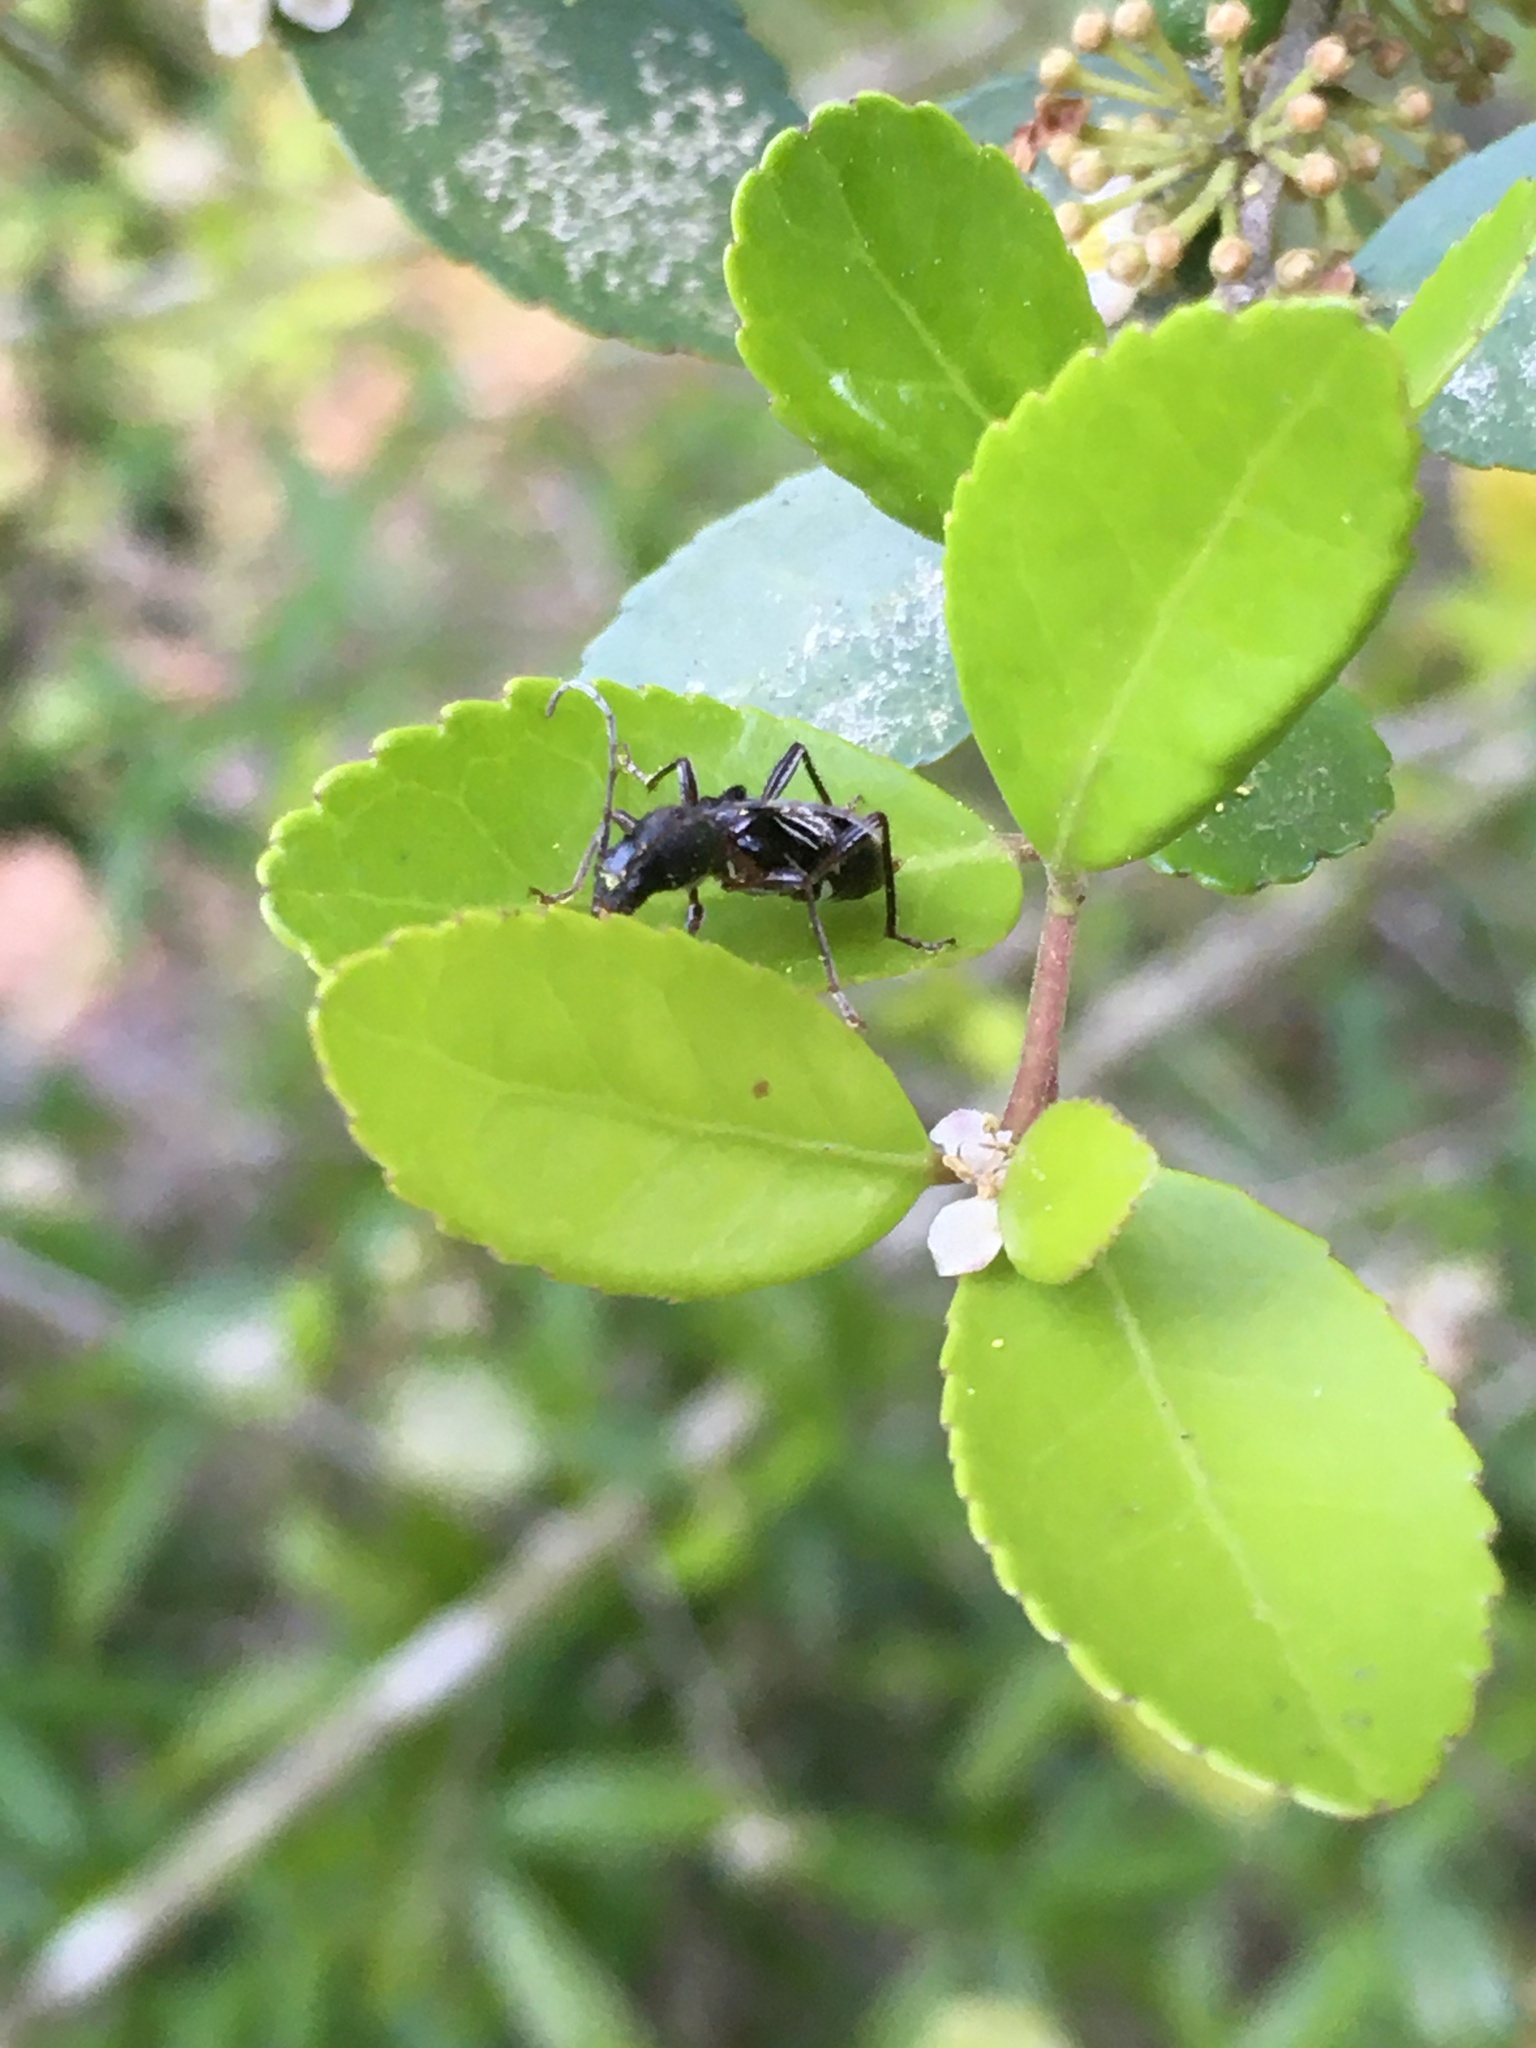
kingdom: Animalia
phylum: Arthropoda
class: Insecta
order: Coleoptera
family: Cerambycidae
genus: Cyrtophorus
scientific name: Cyrtophorus verrucosus
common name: Ant-like longhorn beetle
